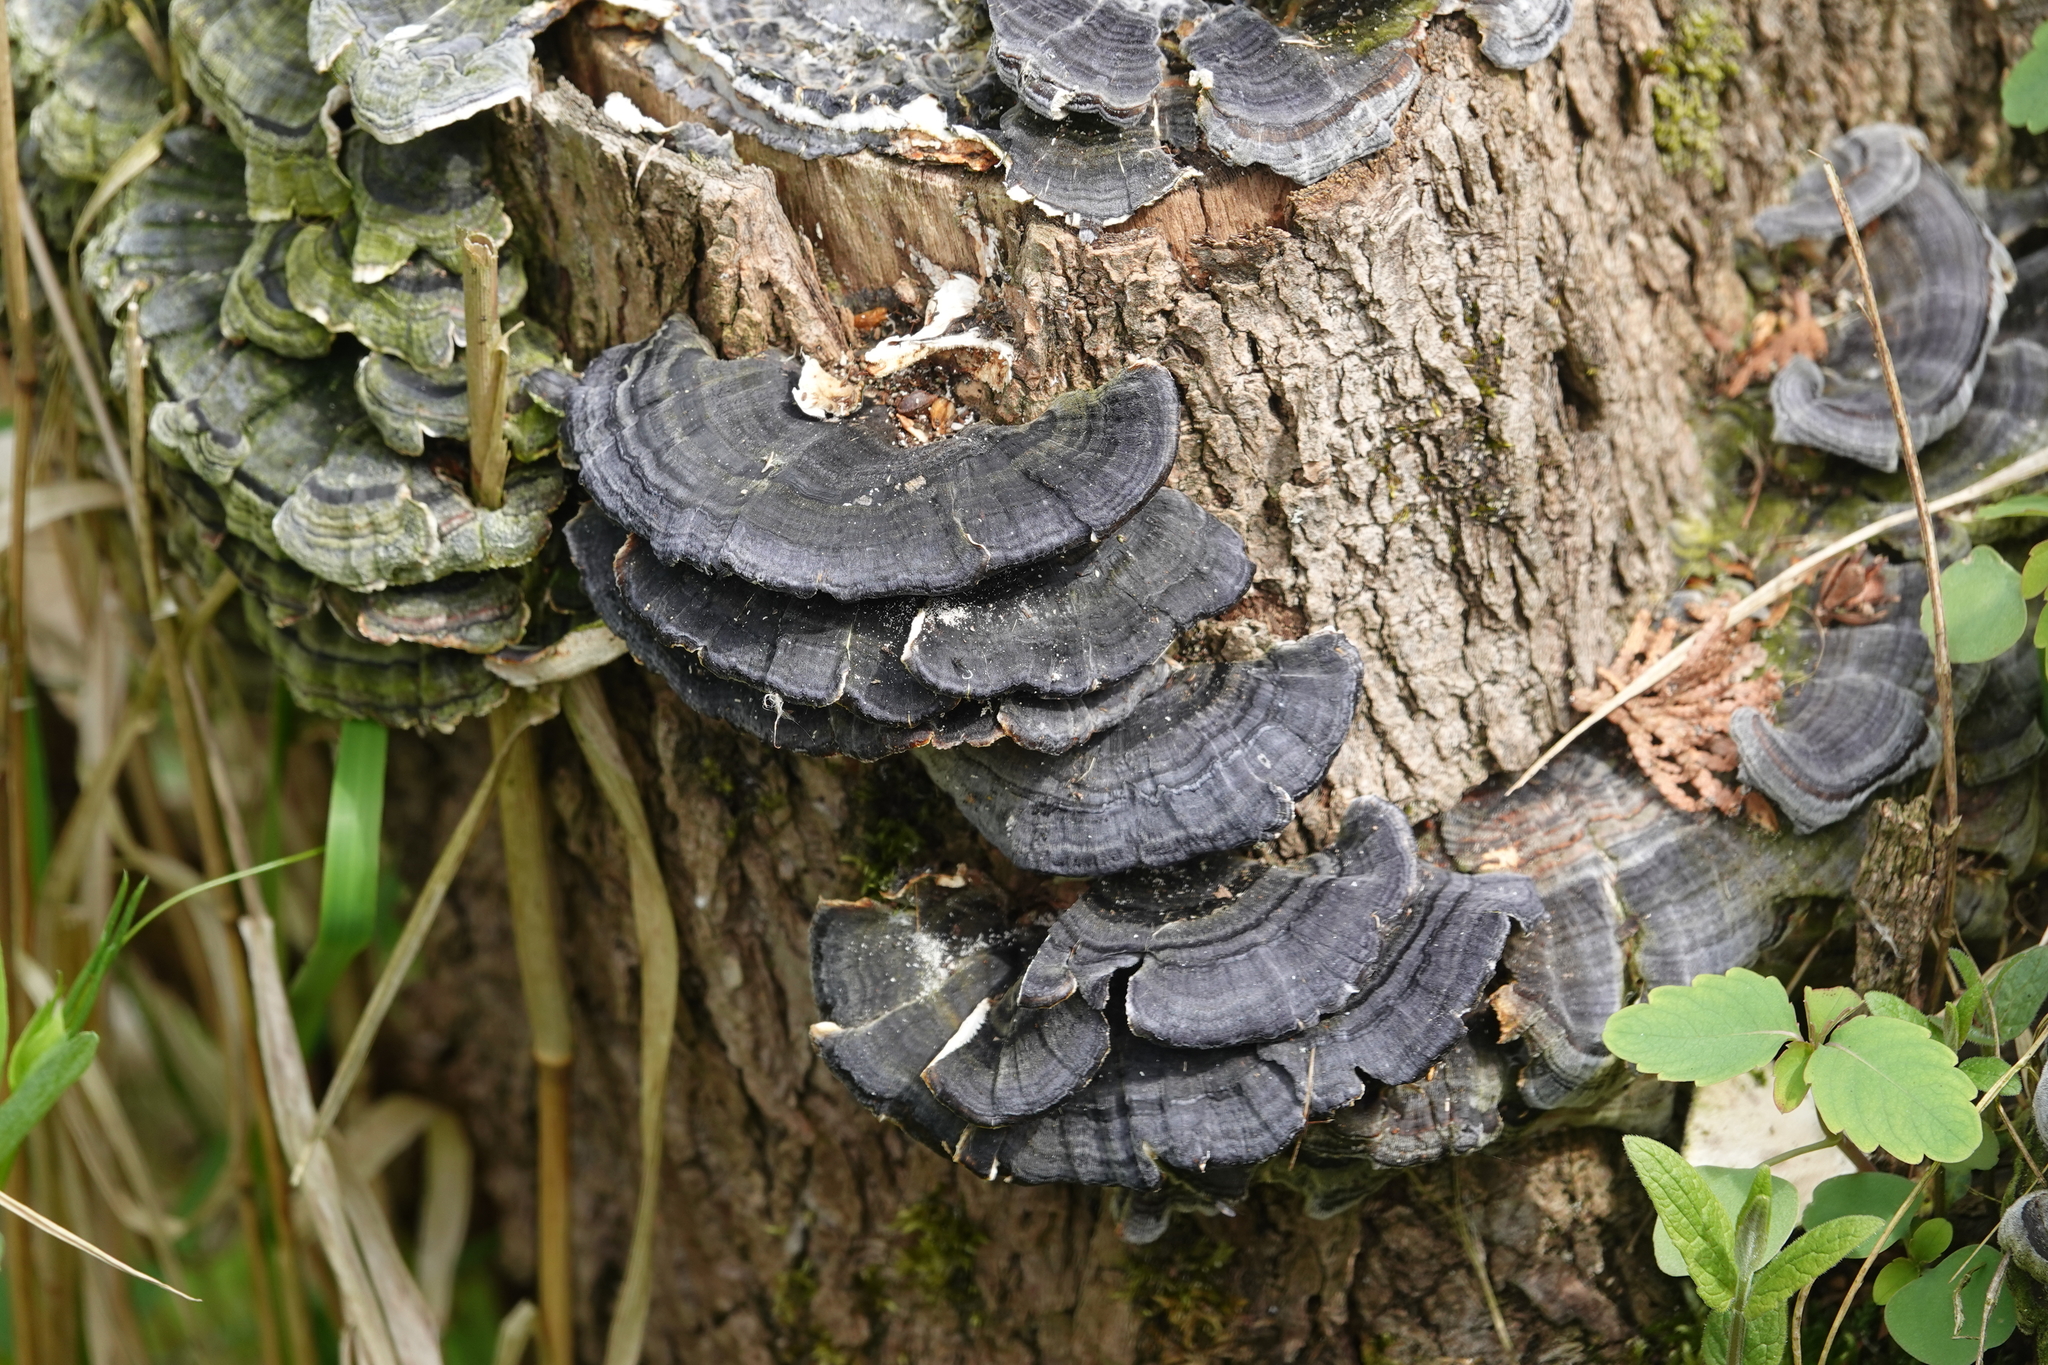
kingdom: Fungi
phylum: Basidiomycota
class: Agaricomycetes
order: Polyporales
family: Polyporaceae
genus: Trametes
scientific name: Trametes versicolor
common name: Turkeytail
